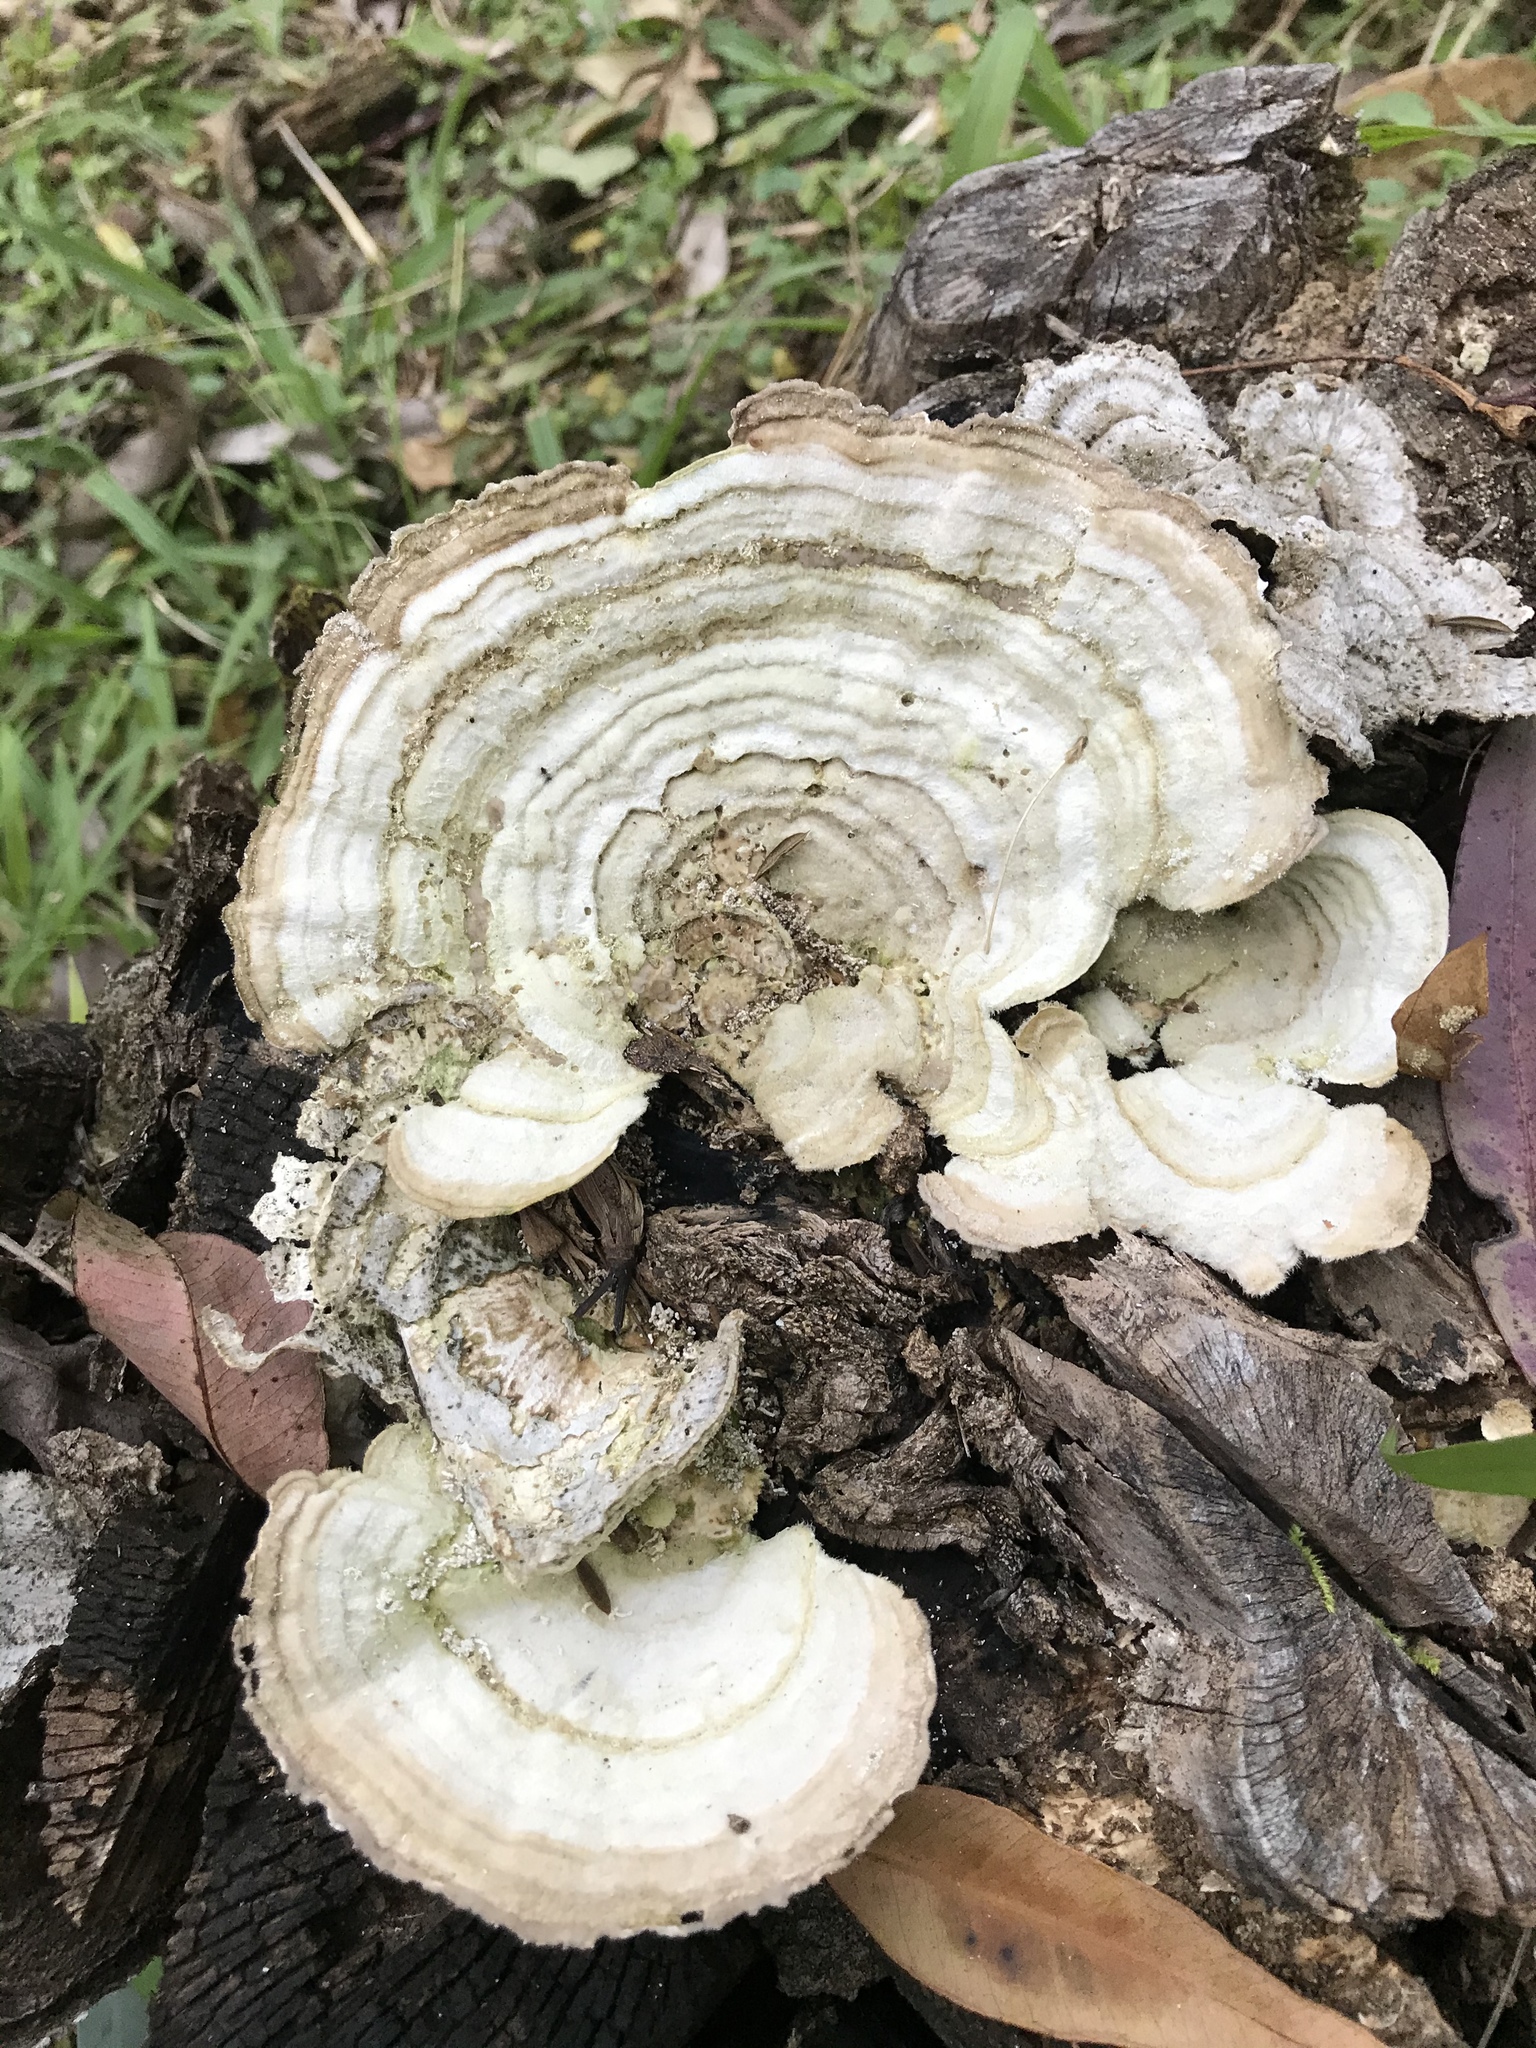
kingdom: Fungi
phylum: Basidiomycota
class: Agaricomycetes
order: Polyporales
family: Polyporaceae
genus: Trametes
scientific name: Trametes versicolor
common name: Turkeytail
